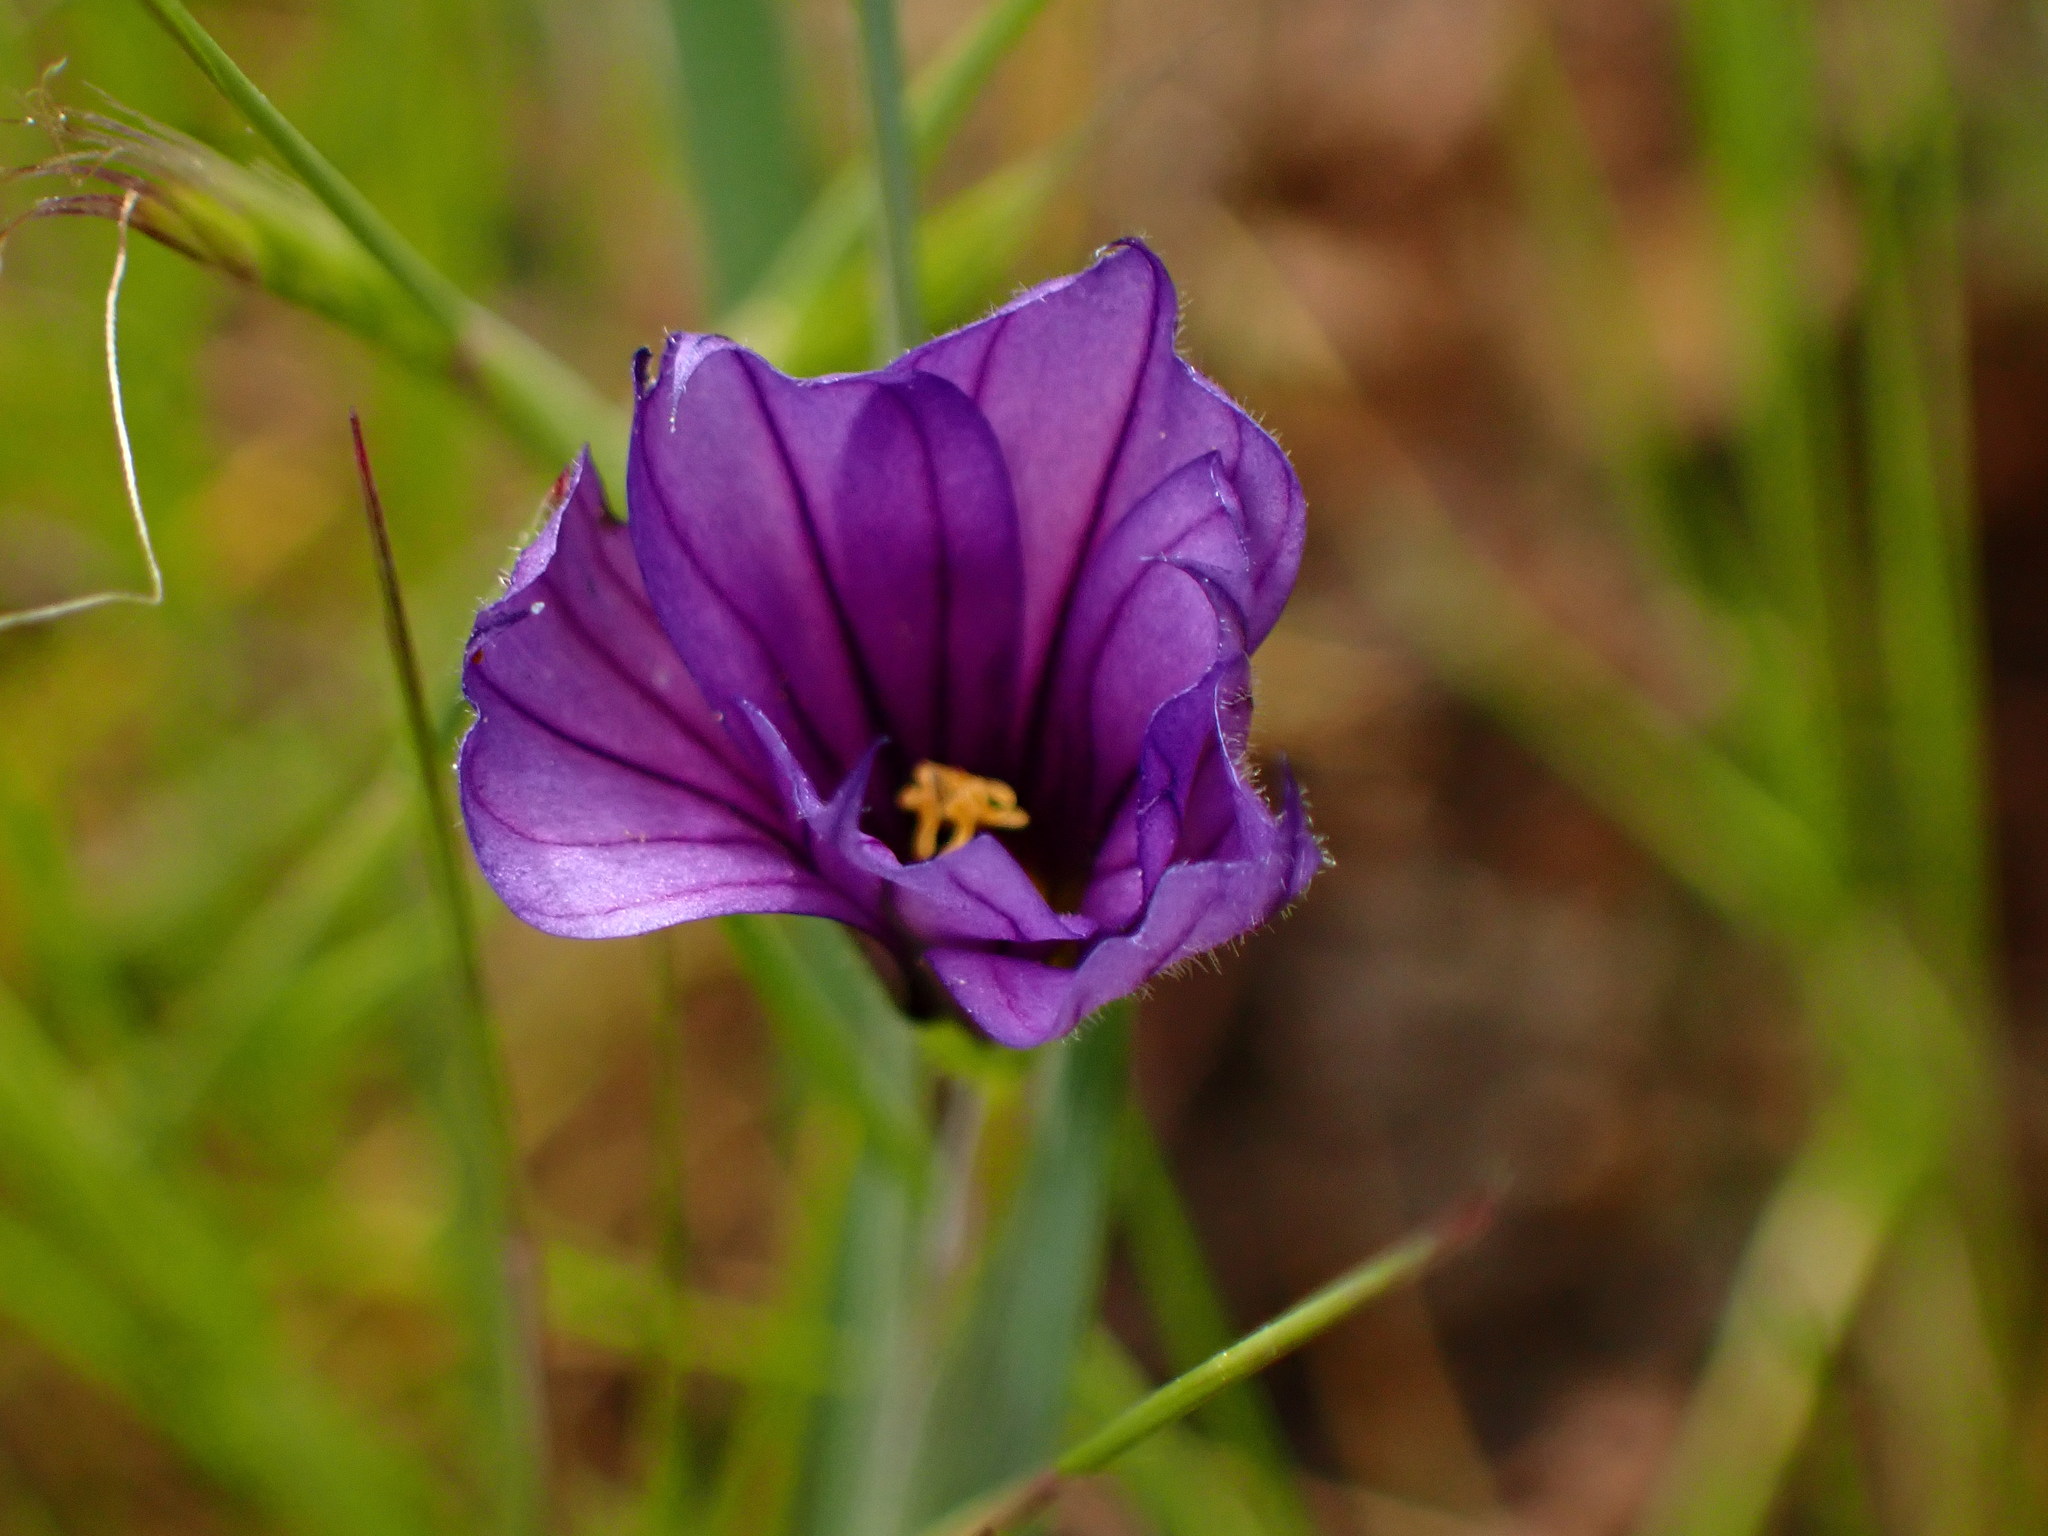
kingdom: Plantae
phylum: Tracheophyta
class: Liliopsida
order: Asparagales
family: Iridaceae
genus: Sisyrinchium
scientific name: Sisyrinchium bellum
